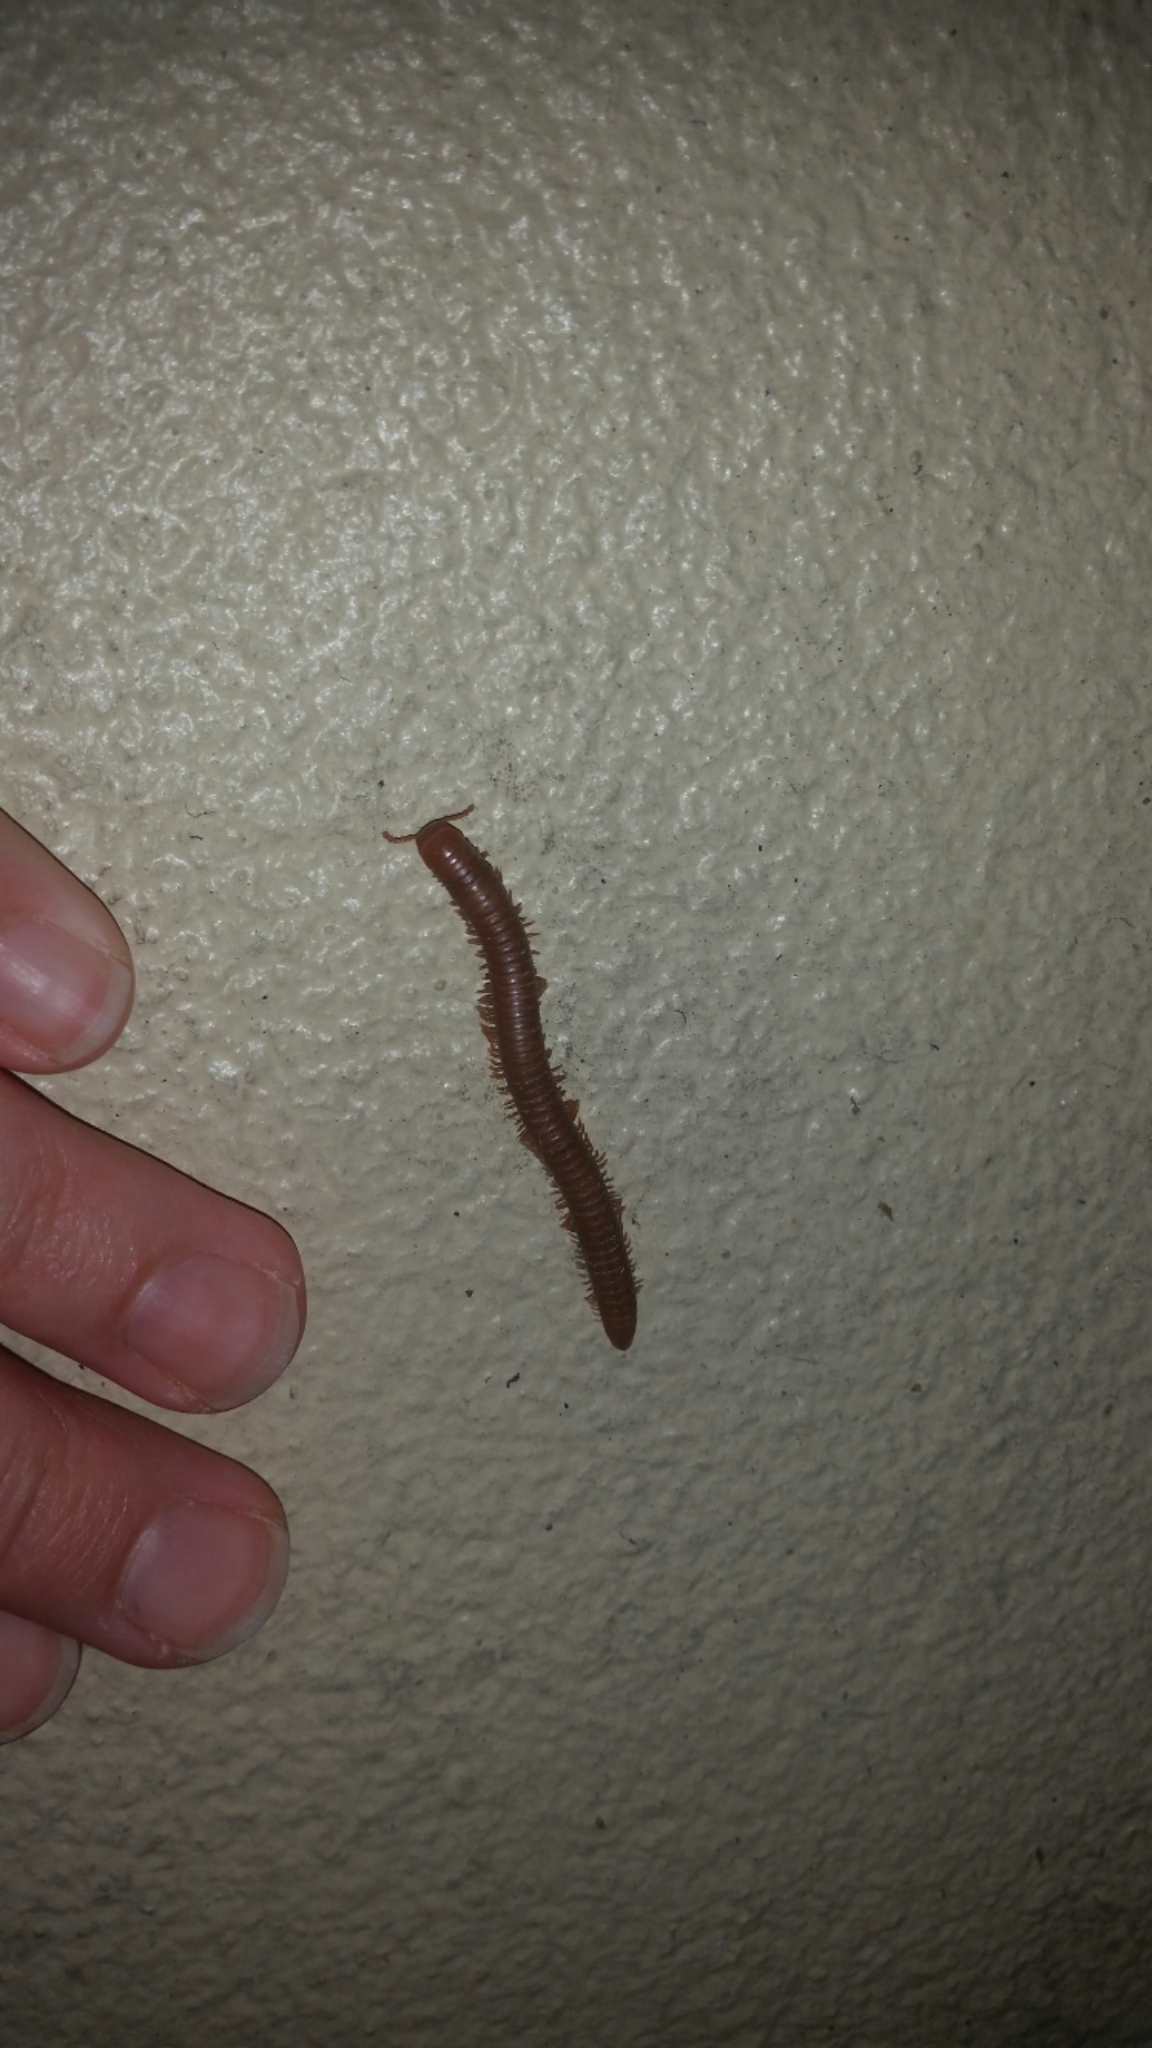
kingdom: Animalia
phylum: Arthropoda
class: Diplopoda
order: Spirobolida
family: Pachybolidae
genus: Trigoniulus
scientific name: Trigoniulus corallinus
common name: Millipede
